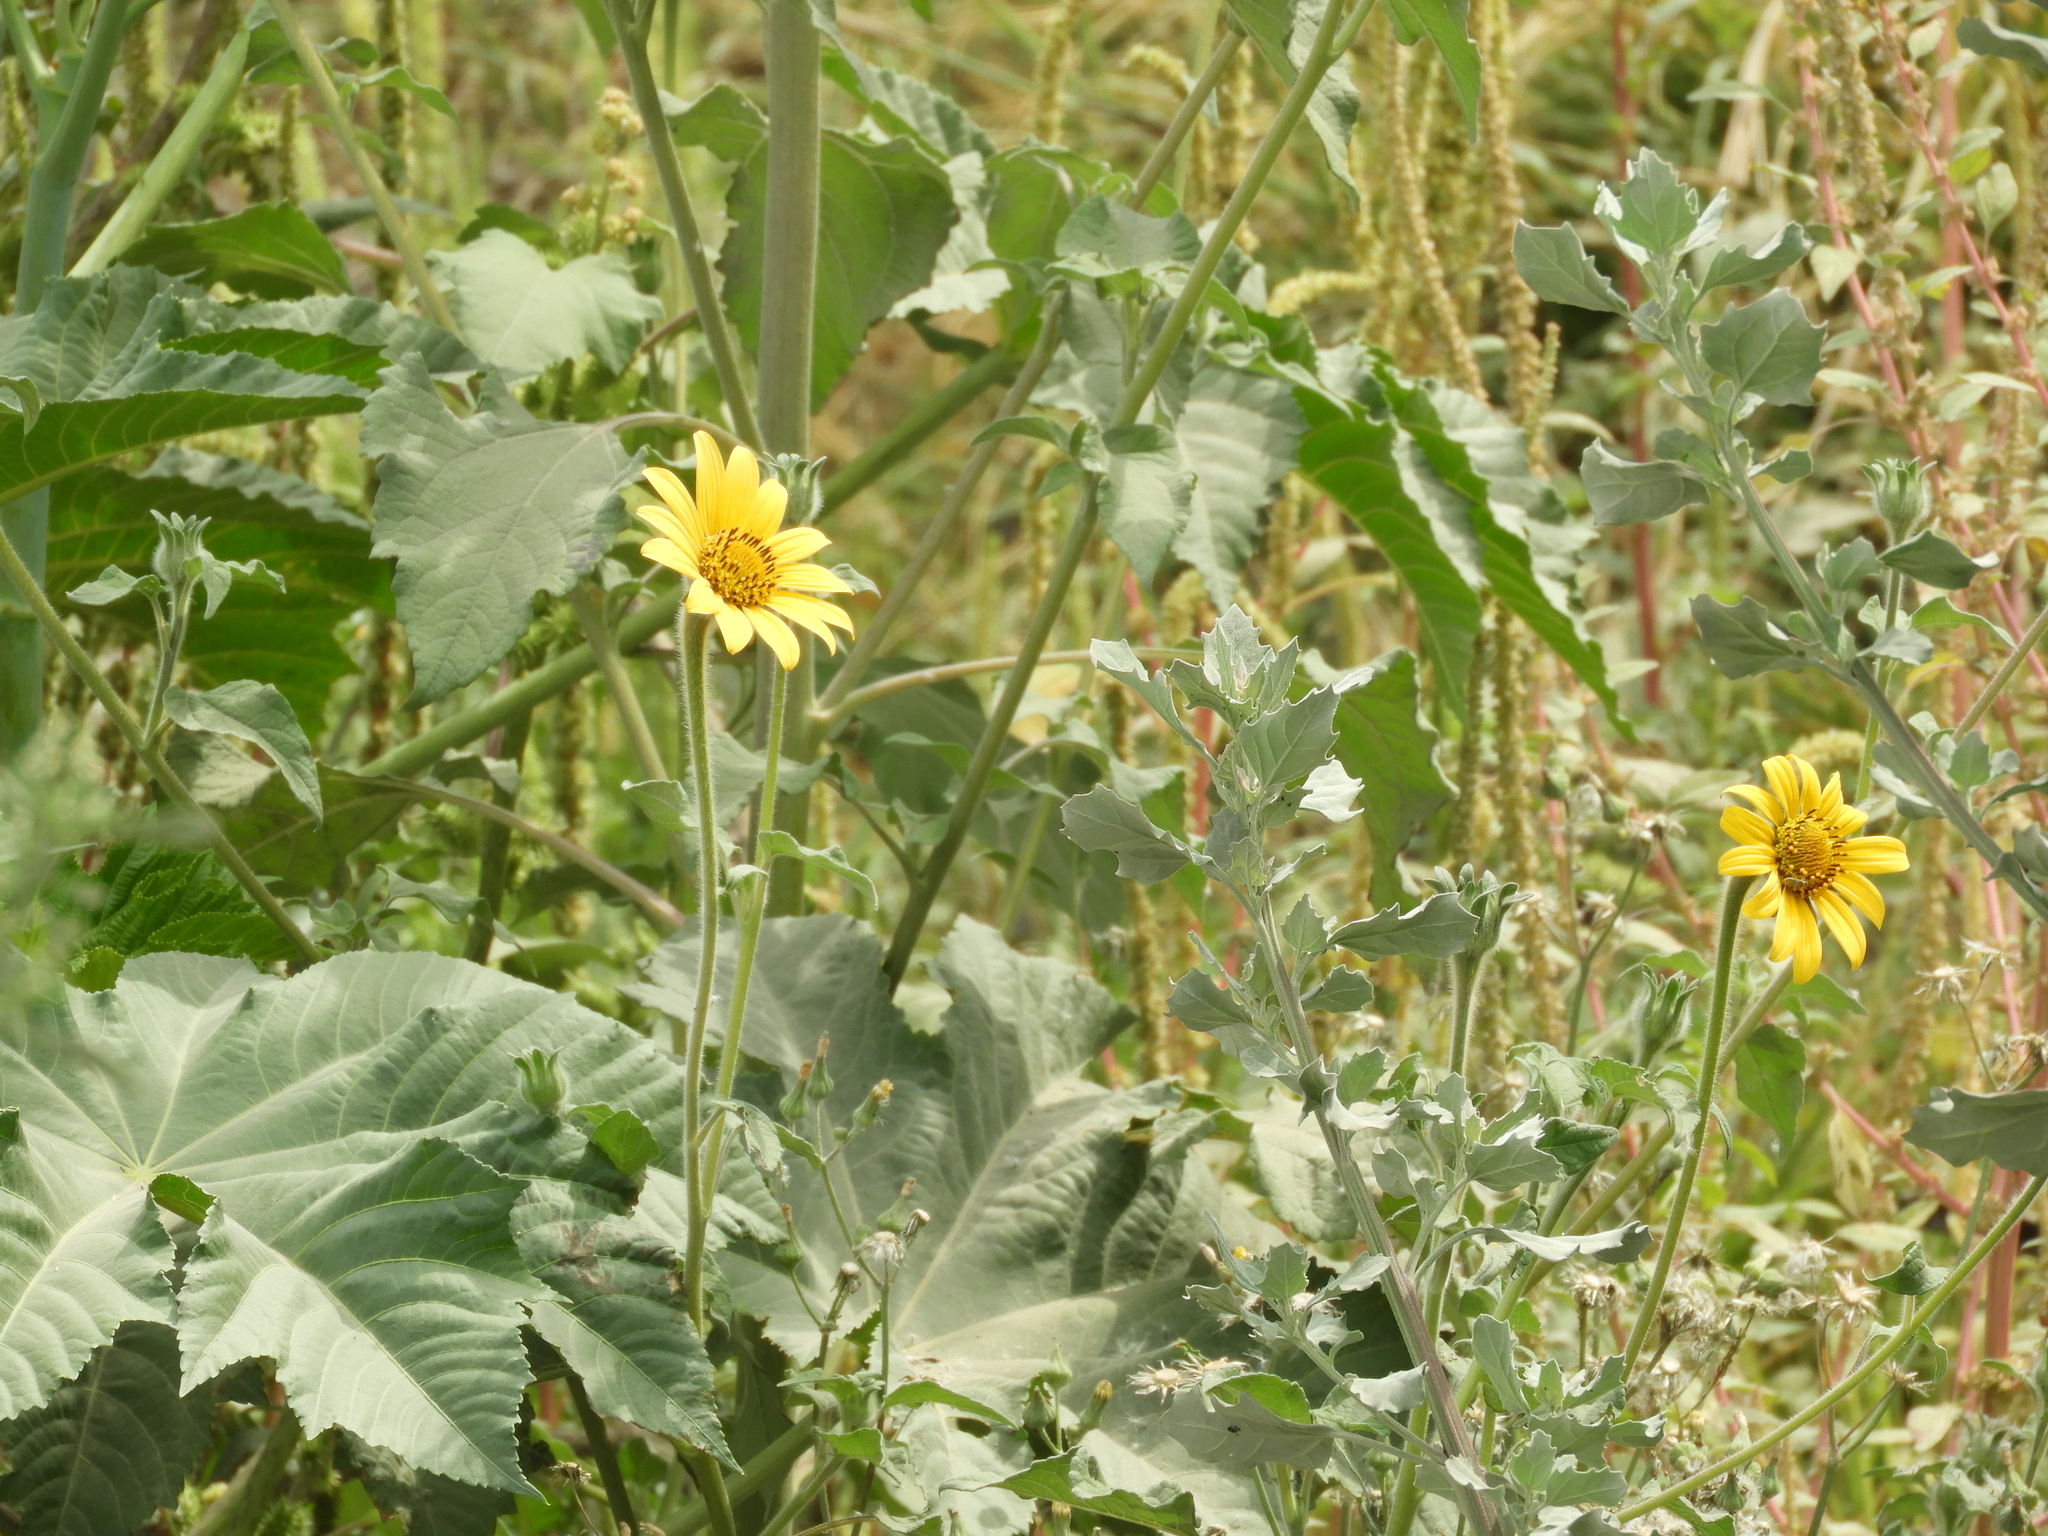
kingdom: Plantae
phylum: Tracheophyta
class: Magnoliopsida
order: Asterales
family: Asteraceae
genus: Tithonia
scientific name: Tithonia tubaeformis
